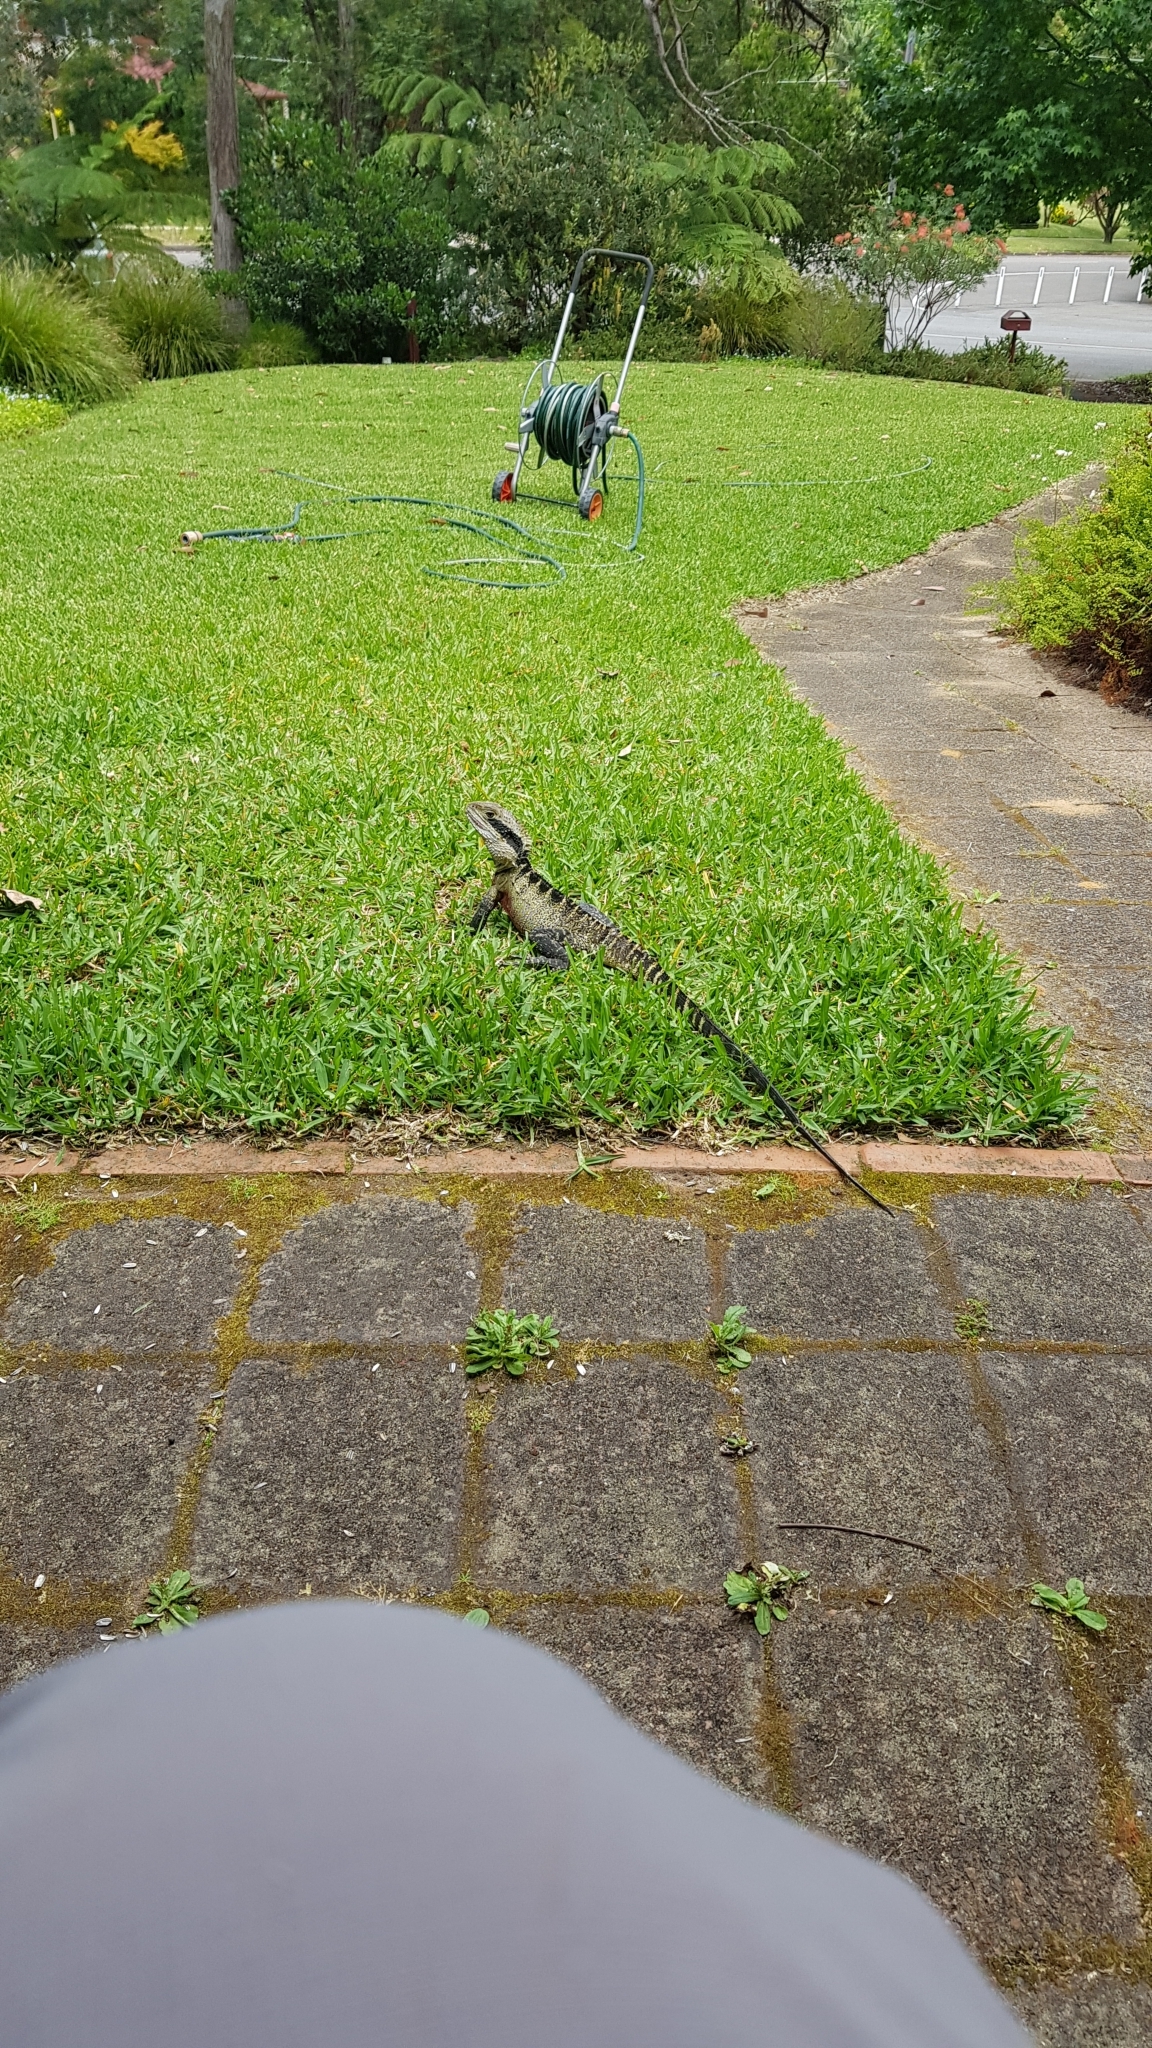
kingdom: Animalia
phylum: Chordata
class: Squamata
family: Agamidae
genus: Intellagama
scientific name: Intellagama lesueurii
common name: Eastern water dragon
